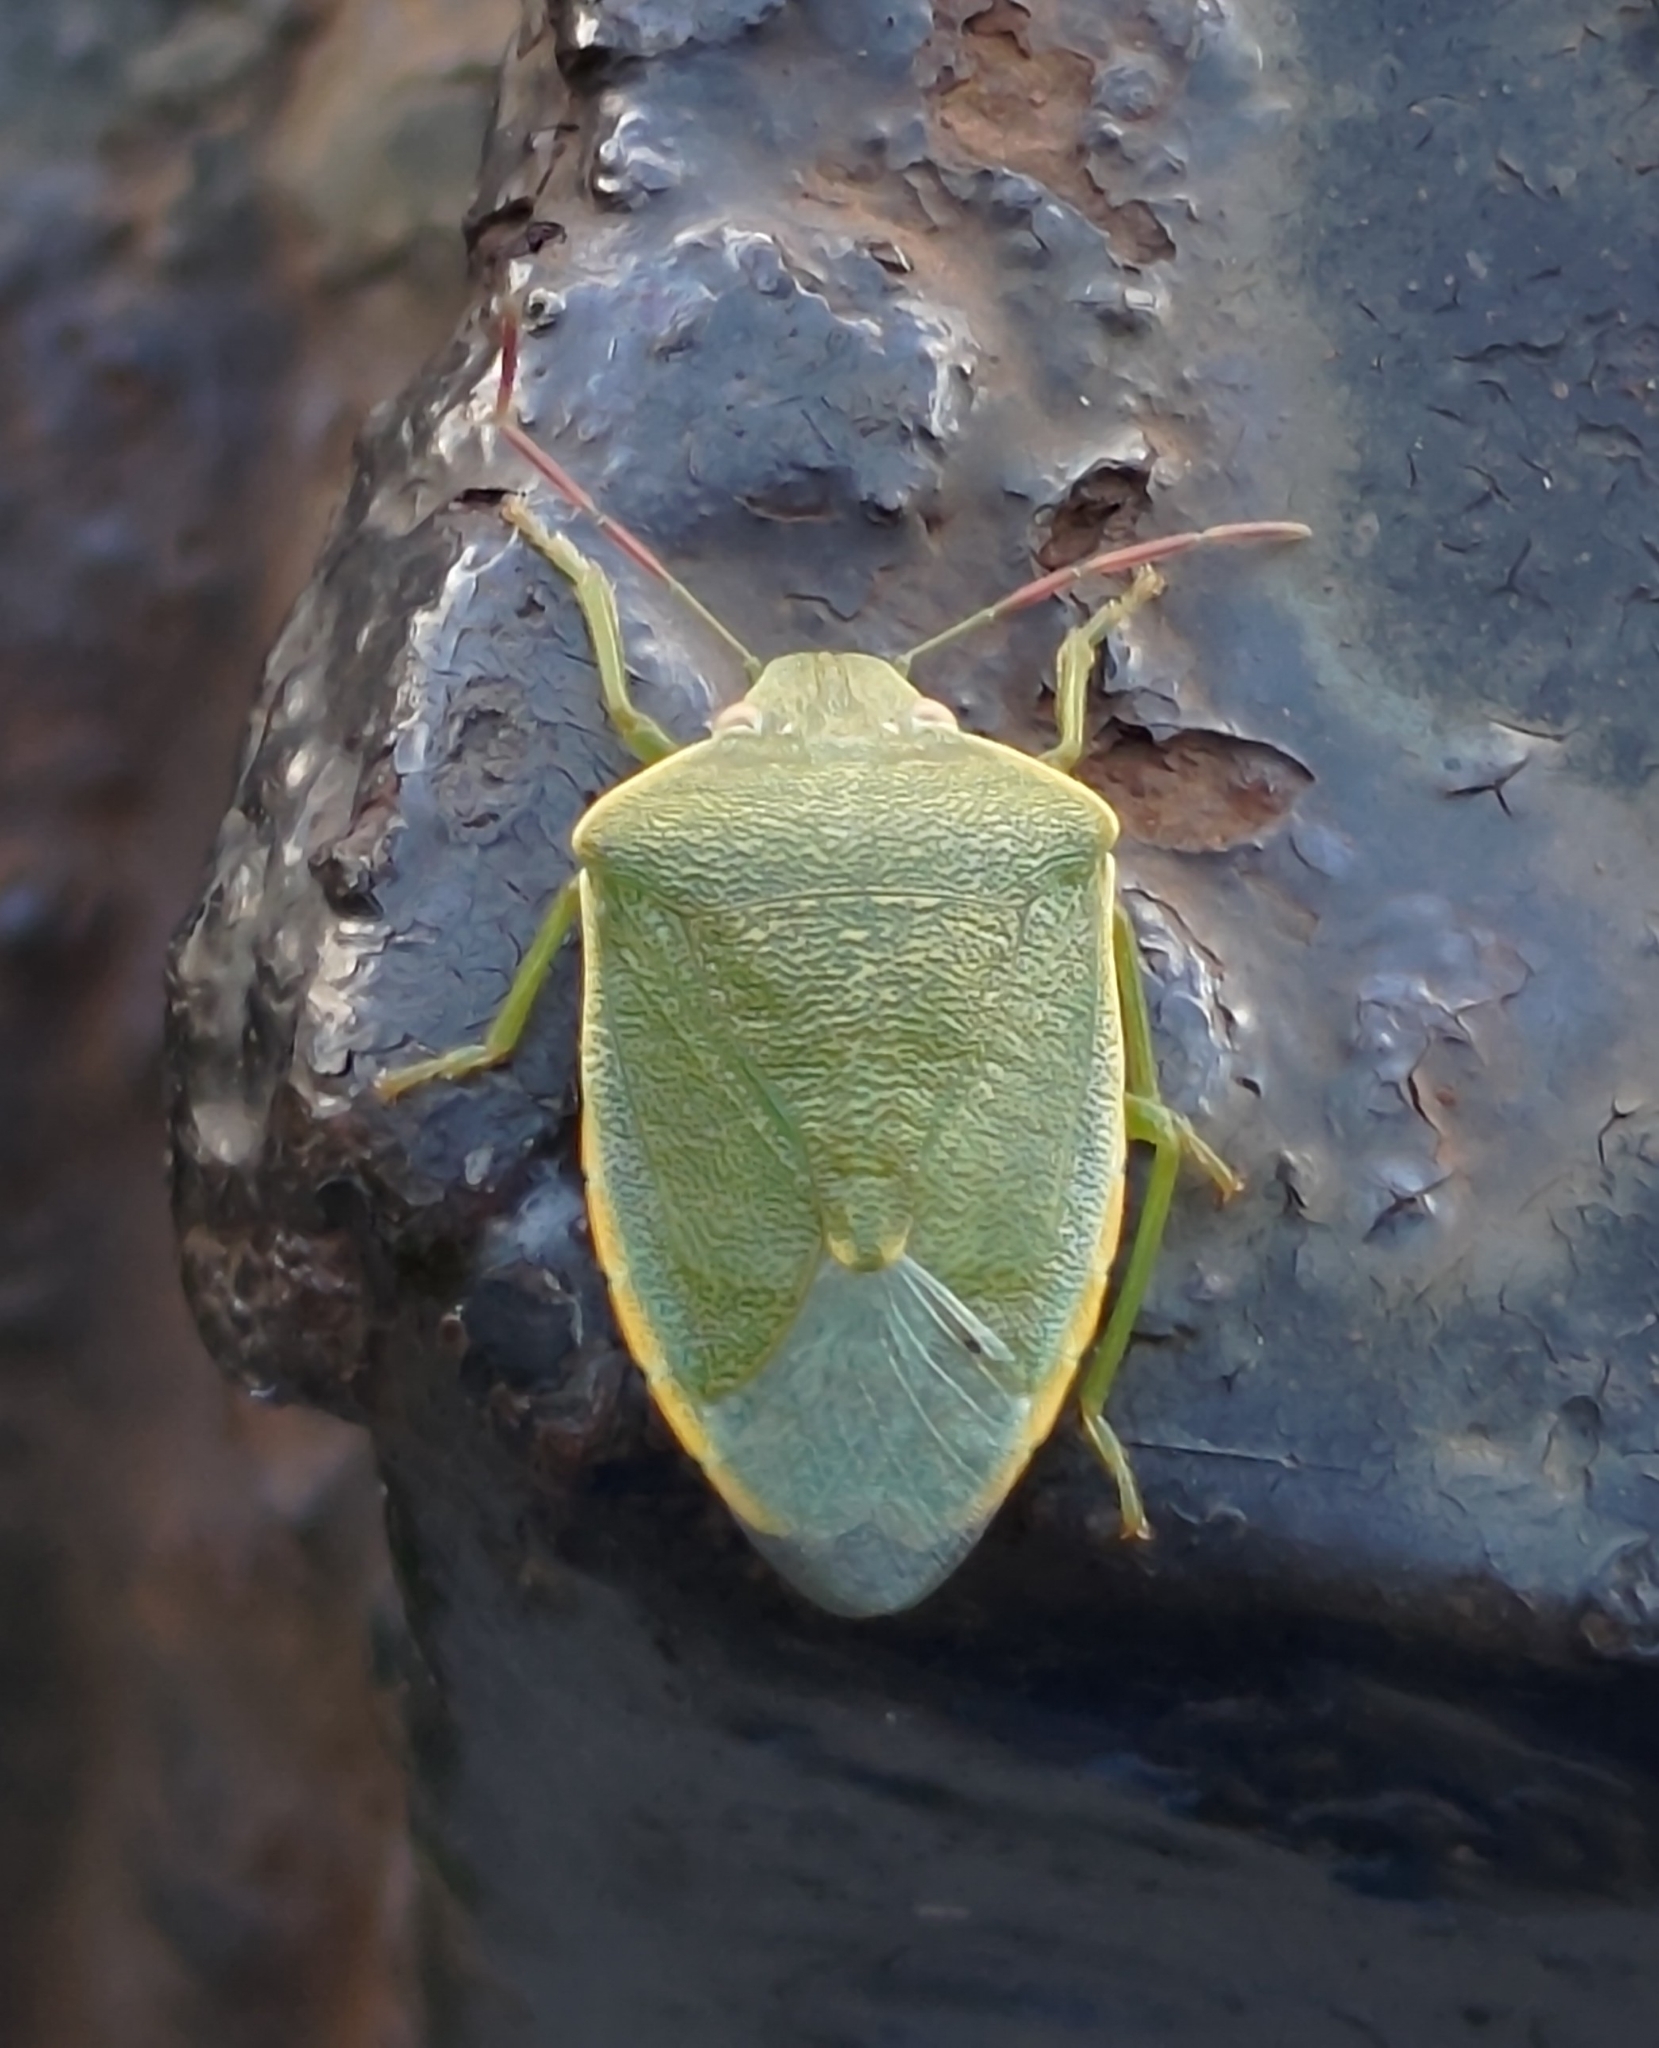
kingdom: Animalia
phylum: Arthropoda
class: Insecta
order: Hemiptera
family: Pentatomidae
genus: Acrosternum
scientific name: Acrosternum heegeri
